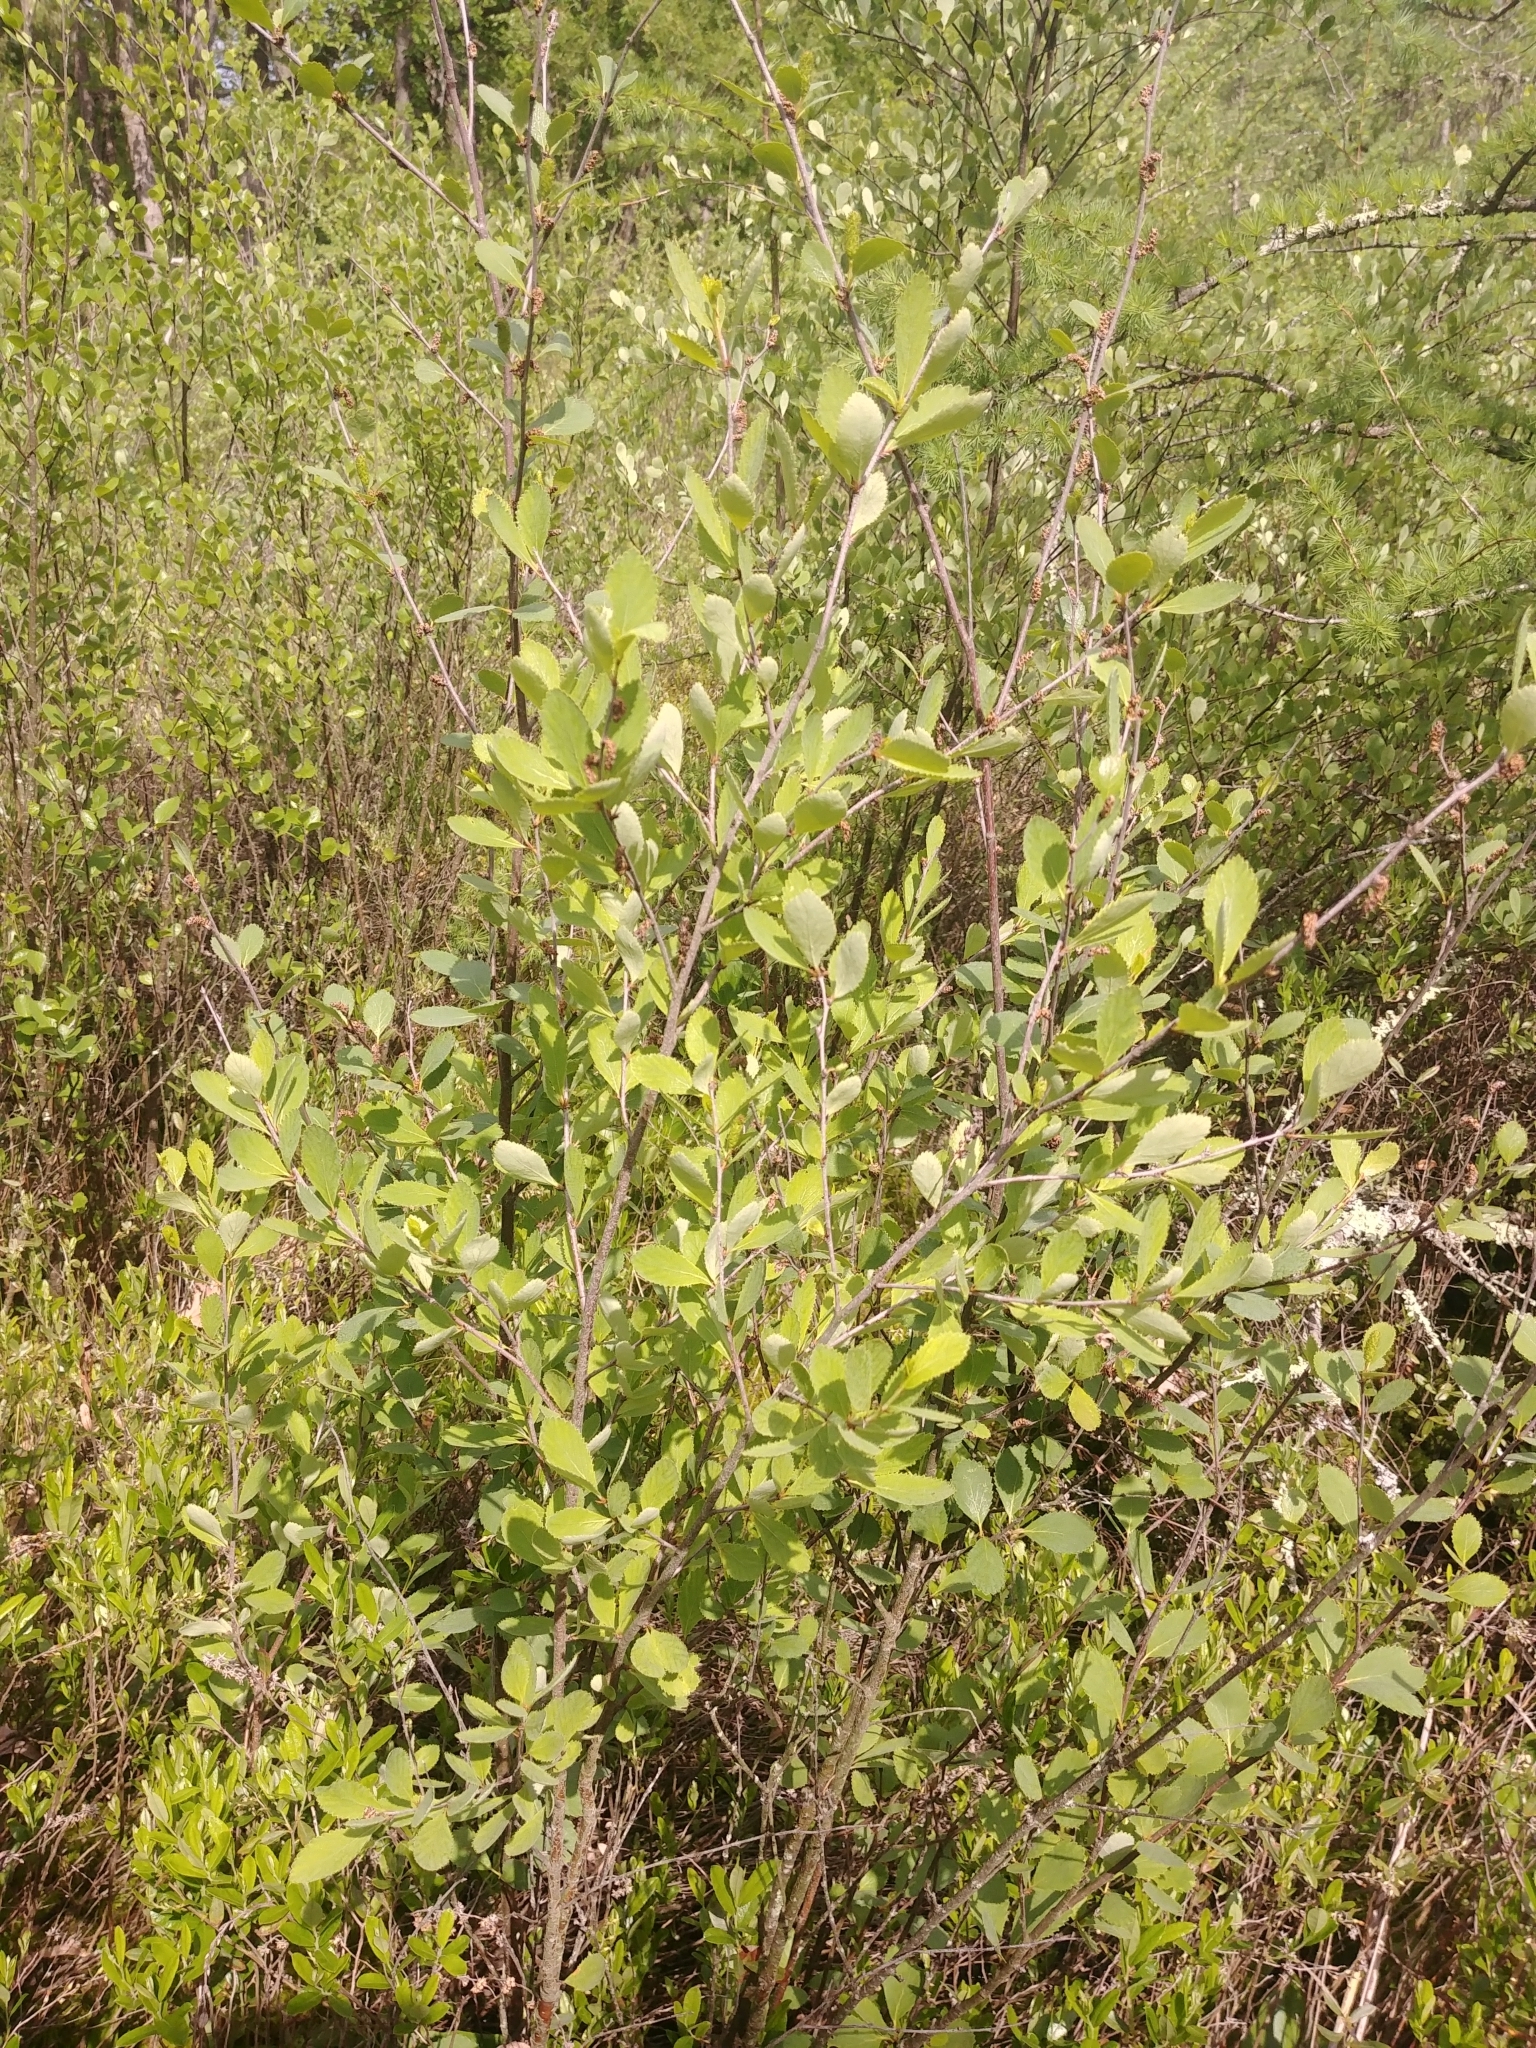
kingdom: Plantae
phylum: Tracheophyta
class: Magnoliopsida
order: Fagales
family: Betulaceae
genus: Betula
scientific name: Betula pumila
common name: Bog birch
